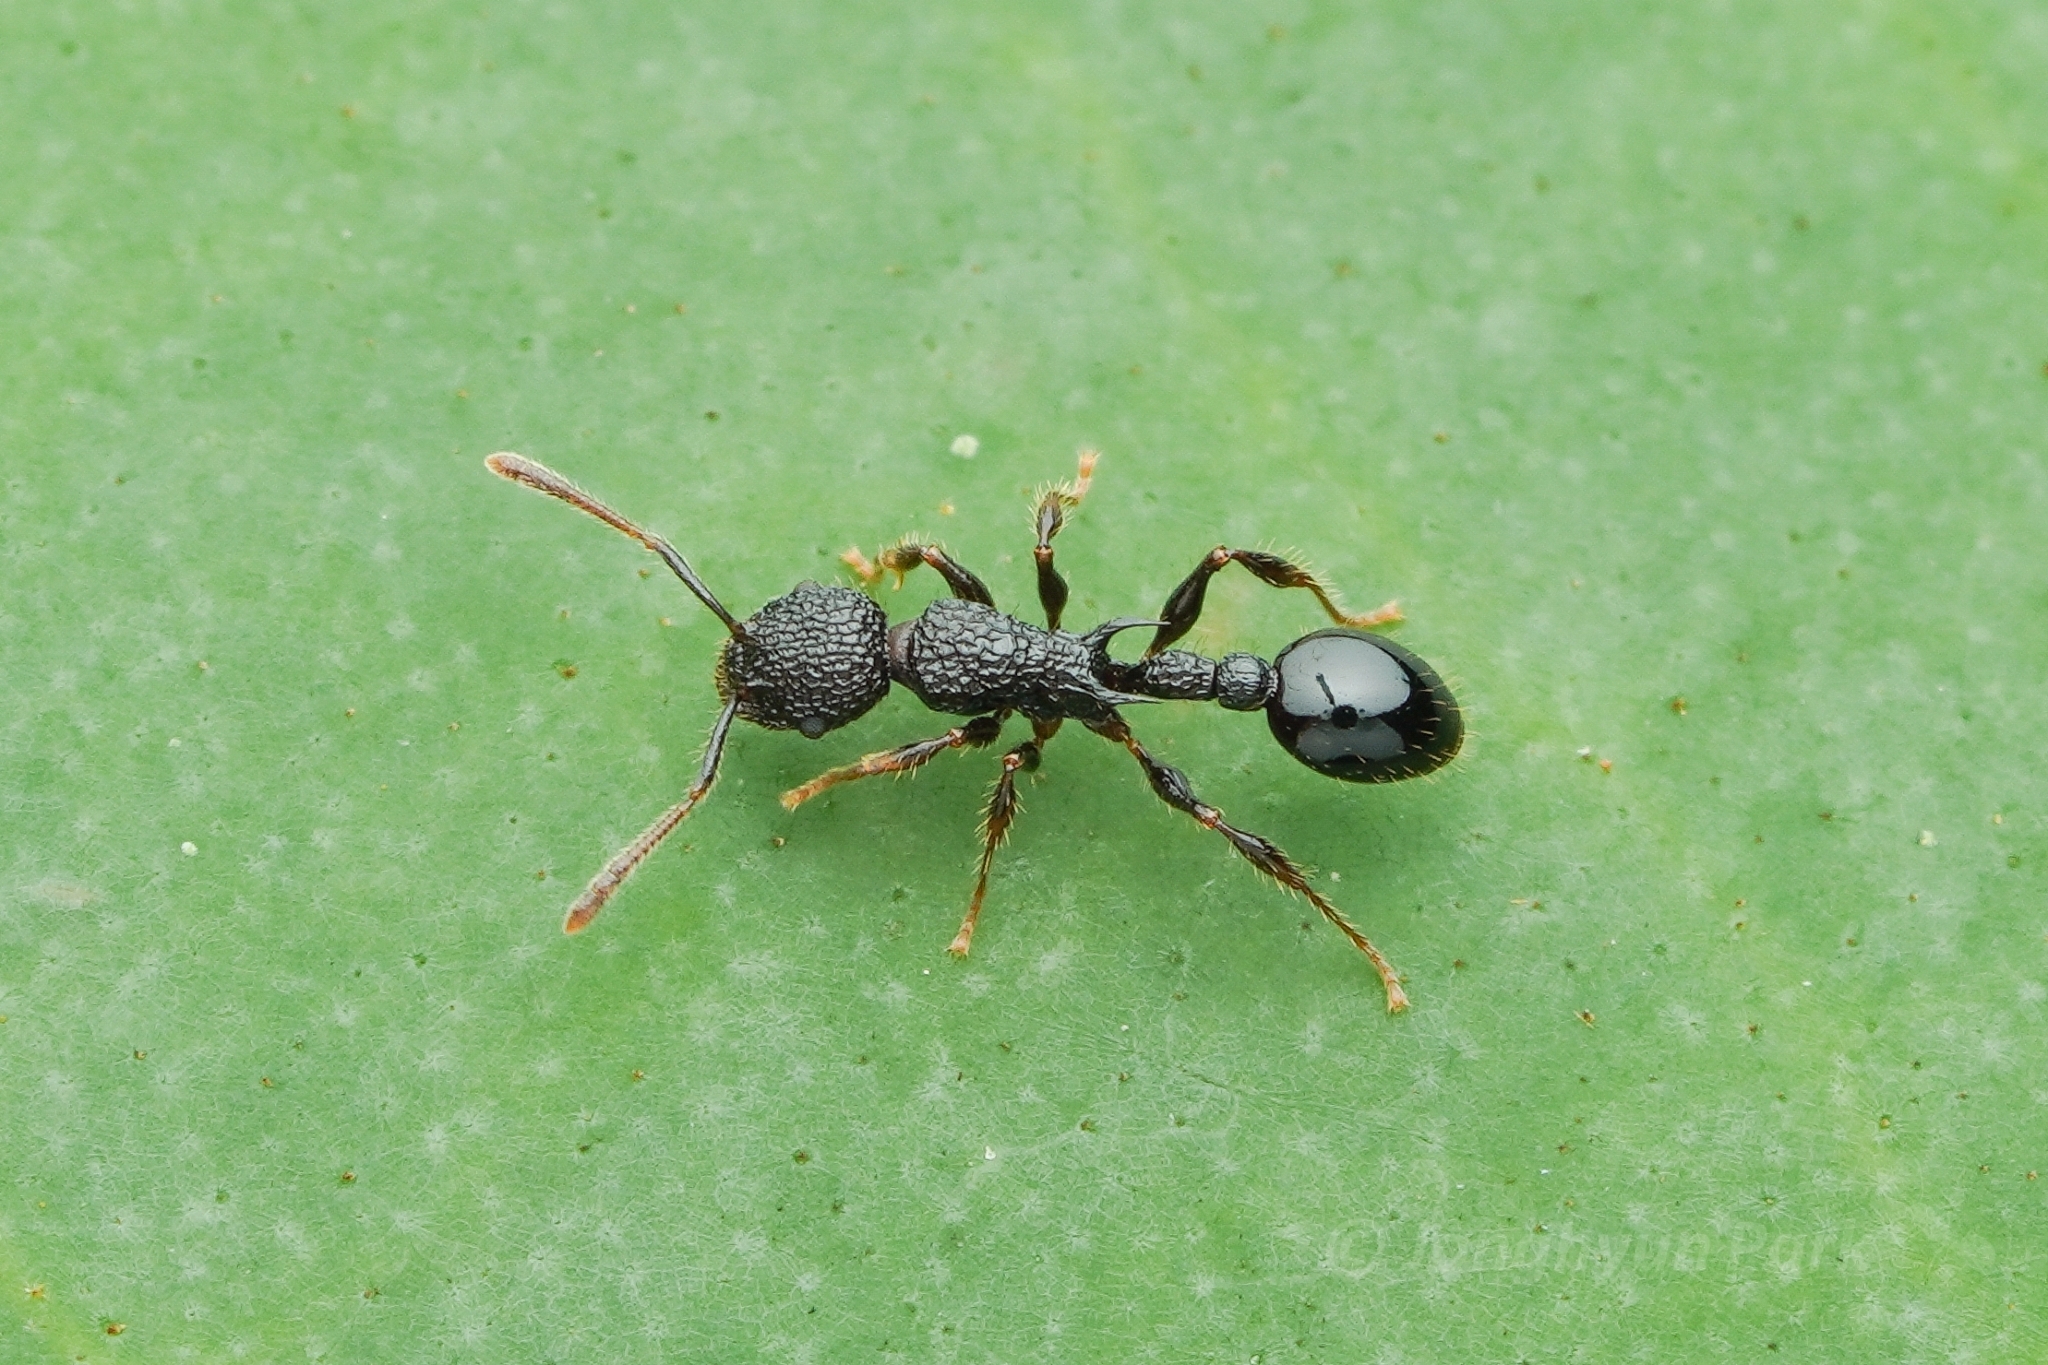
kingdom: Animalia
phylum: Arthropoda
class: Insecta
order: Hymenoptera
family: Formicidae
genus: Vombisidris
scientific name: Vombisidris regina
